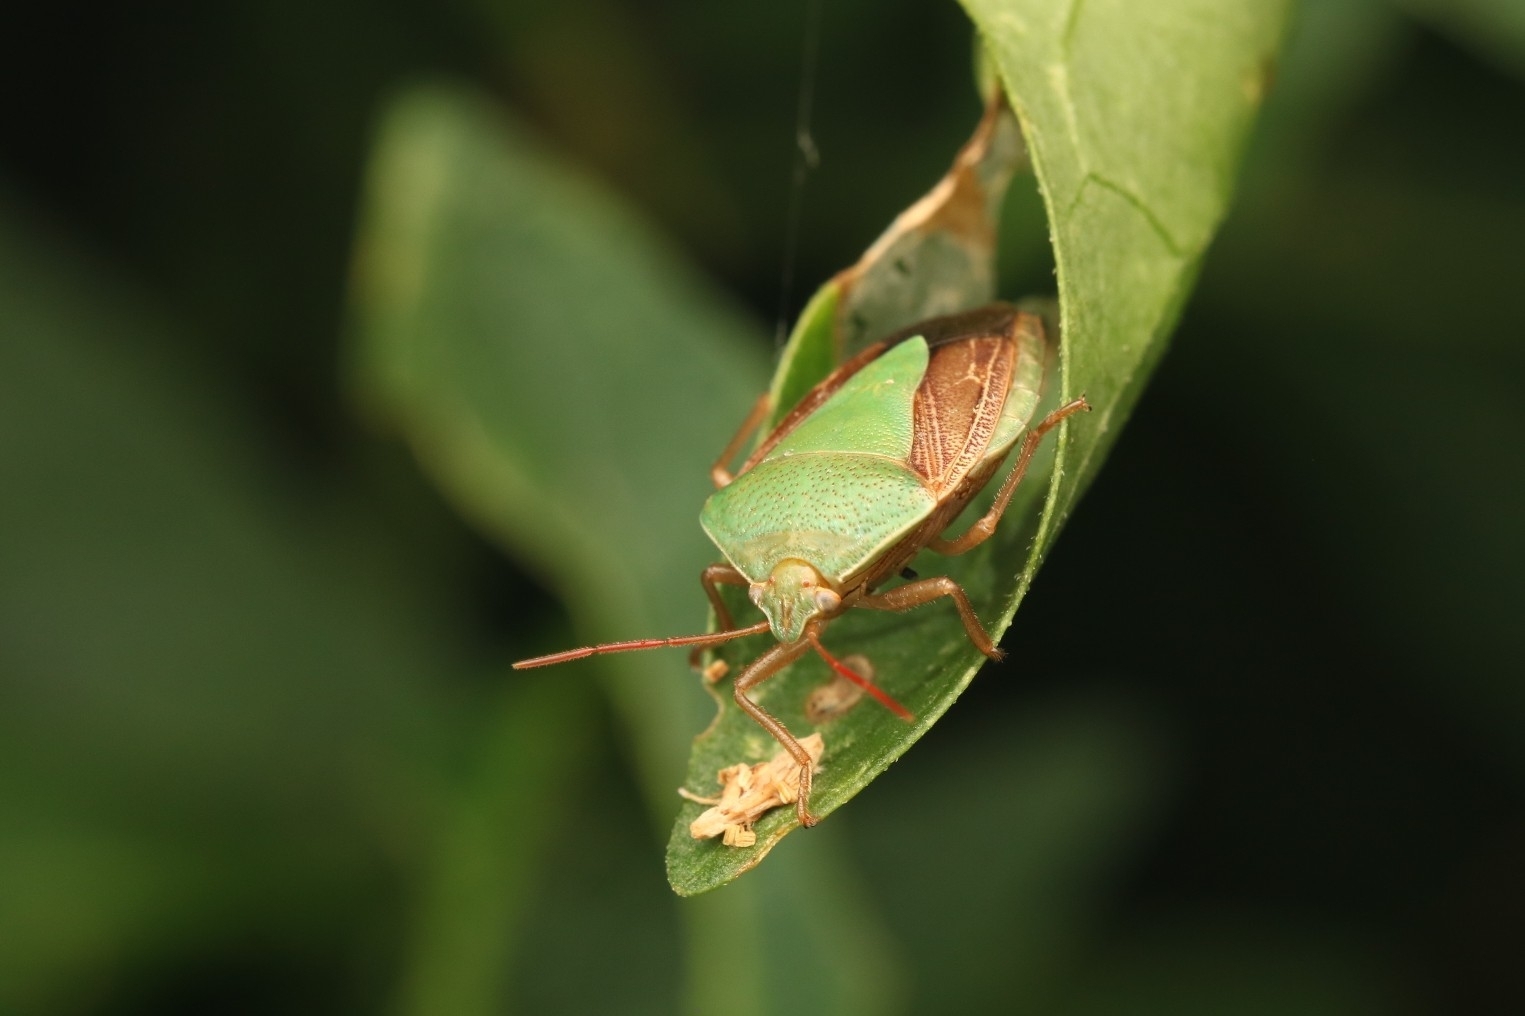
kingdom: Animalia
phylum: Arthropoda
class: Insecta
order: Hemiptera
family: Pentatomidae
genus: Edessa
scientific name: Edessa meditabunda
